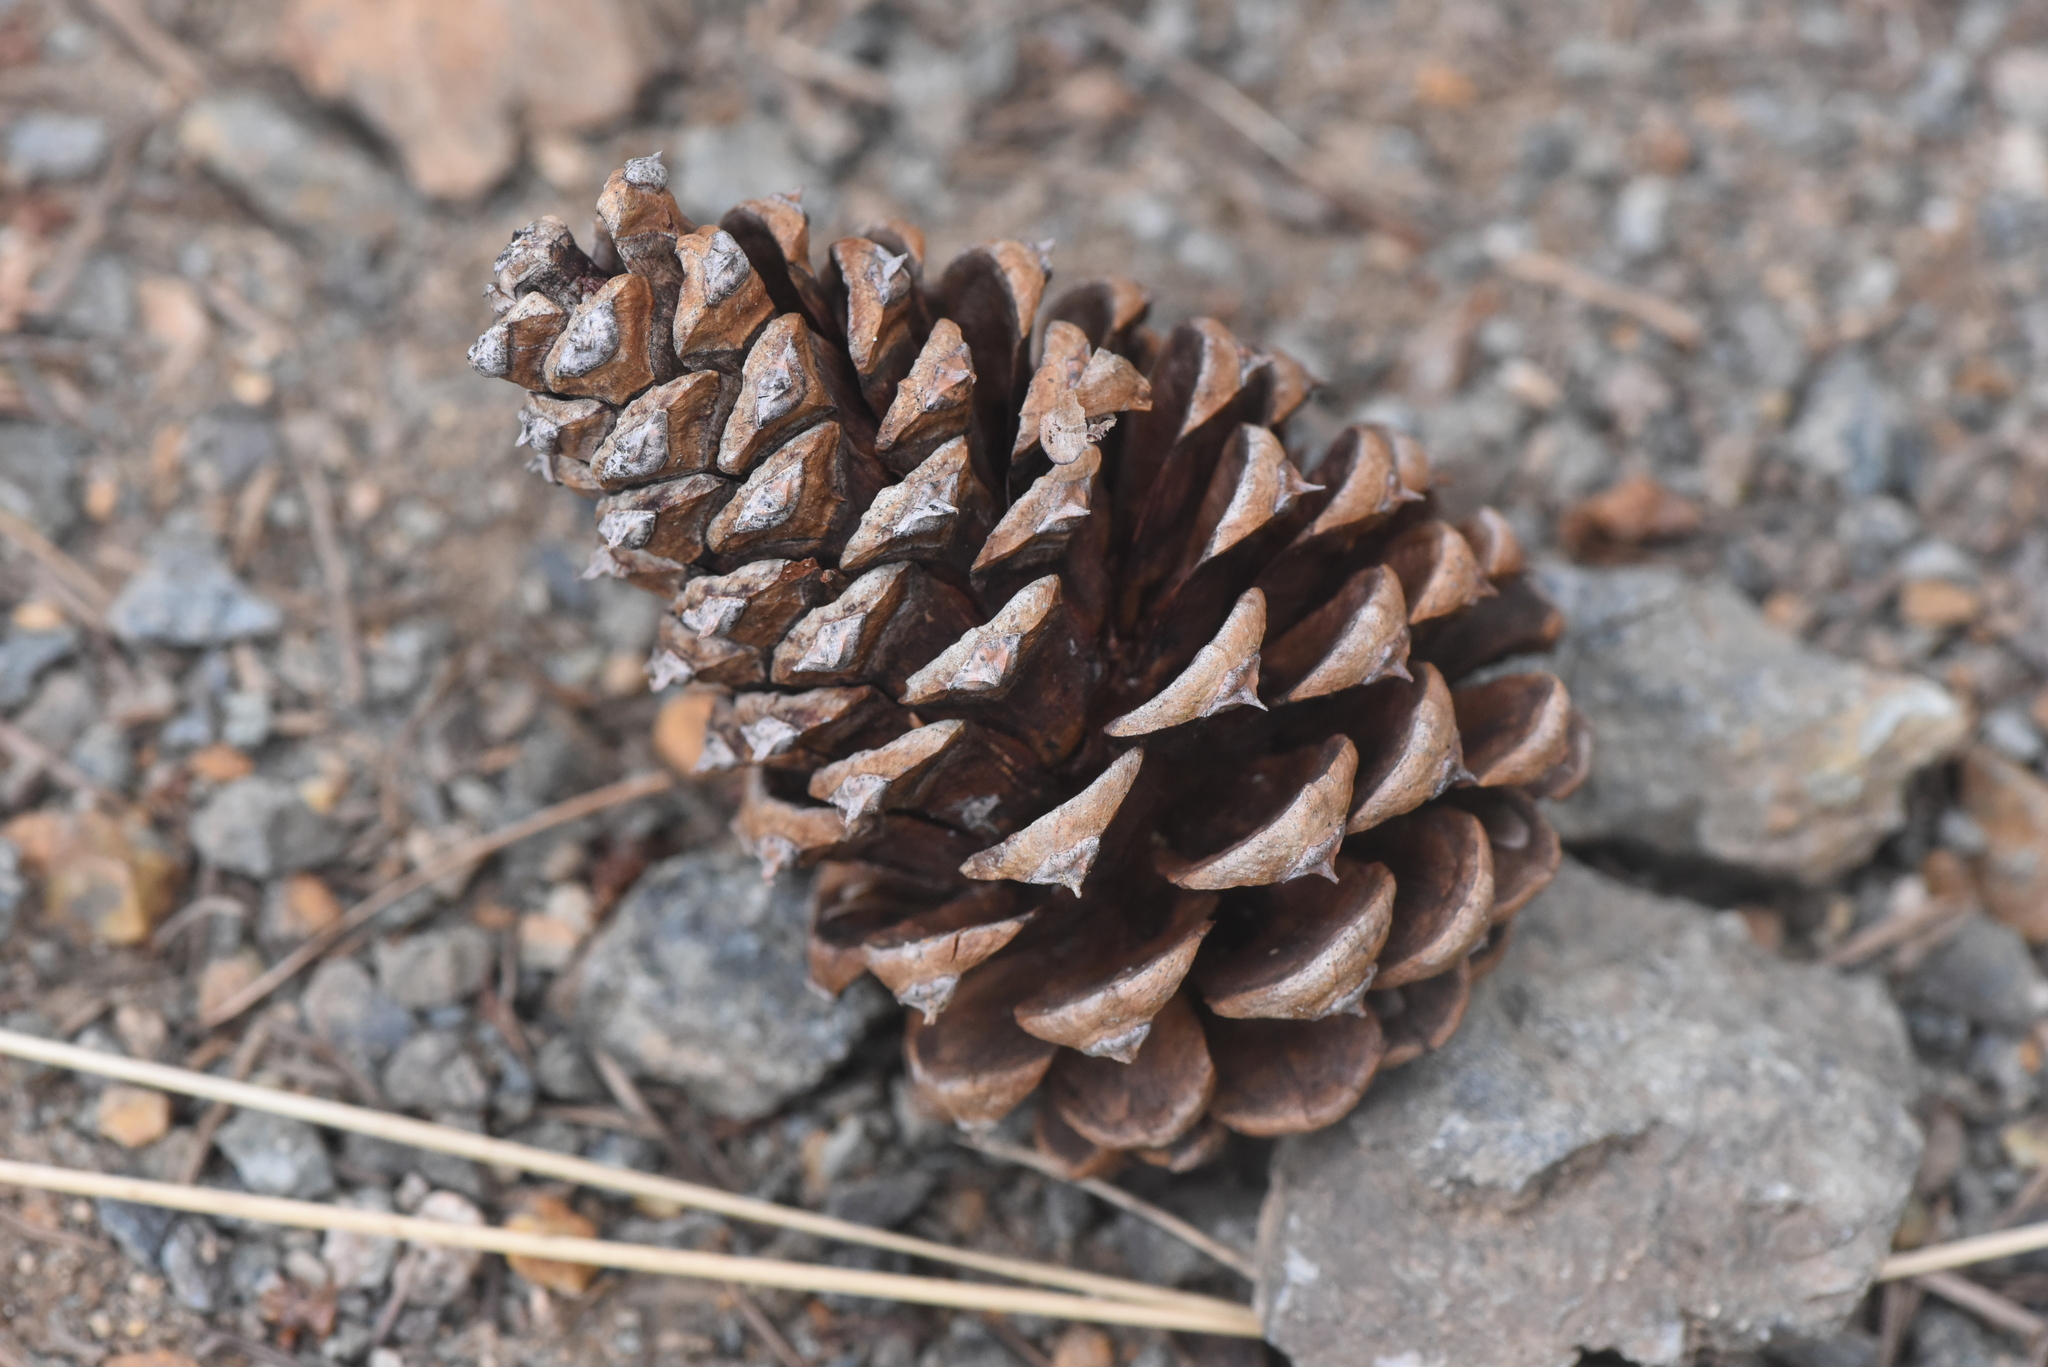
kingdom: Plantae
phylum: Tracheophyta
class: Pinopsida
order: Pinales
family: Pinaceae
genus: Pinus
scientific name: Pinus ponderosa
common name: Western yellow-pine
